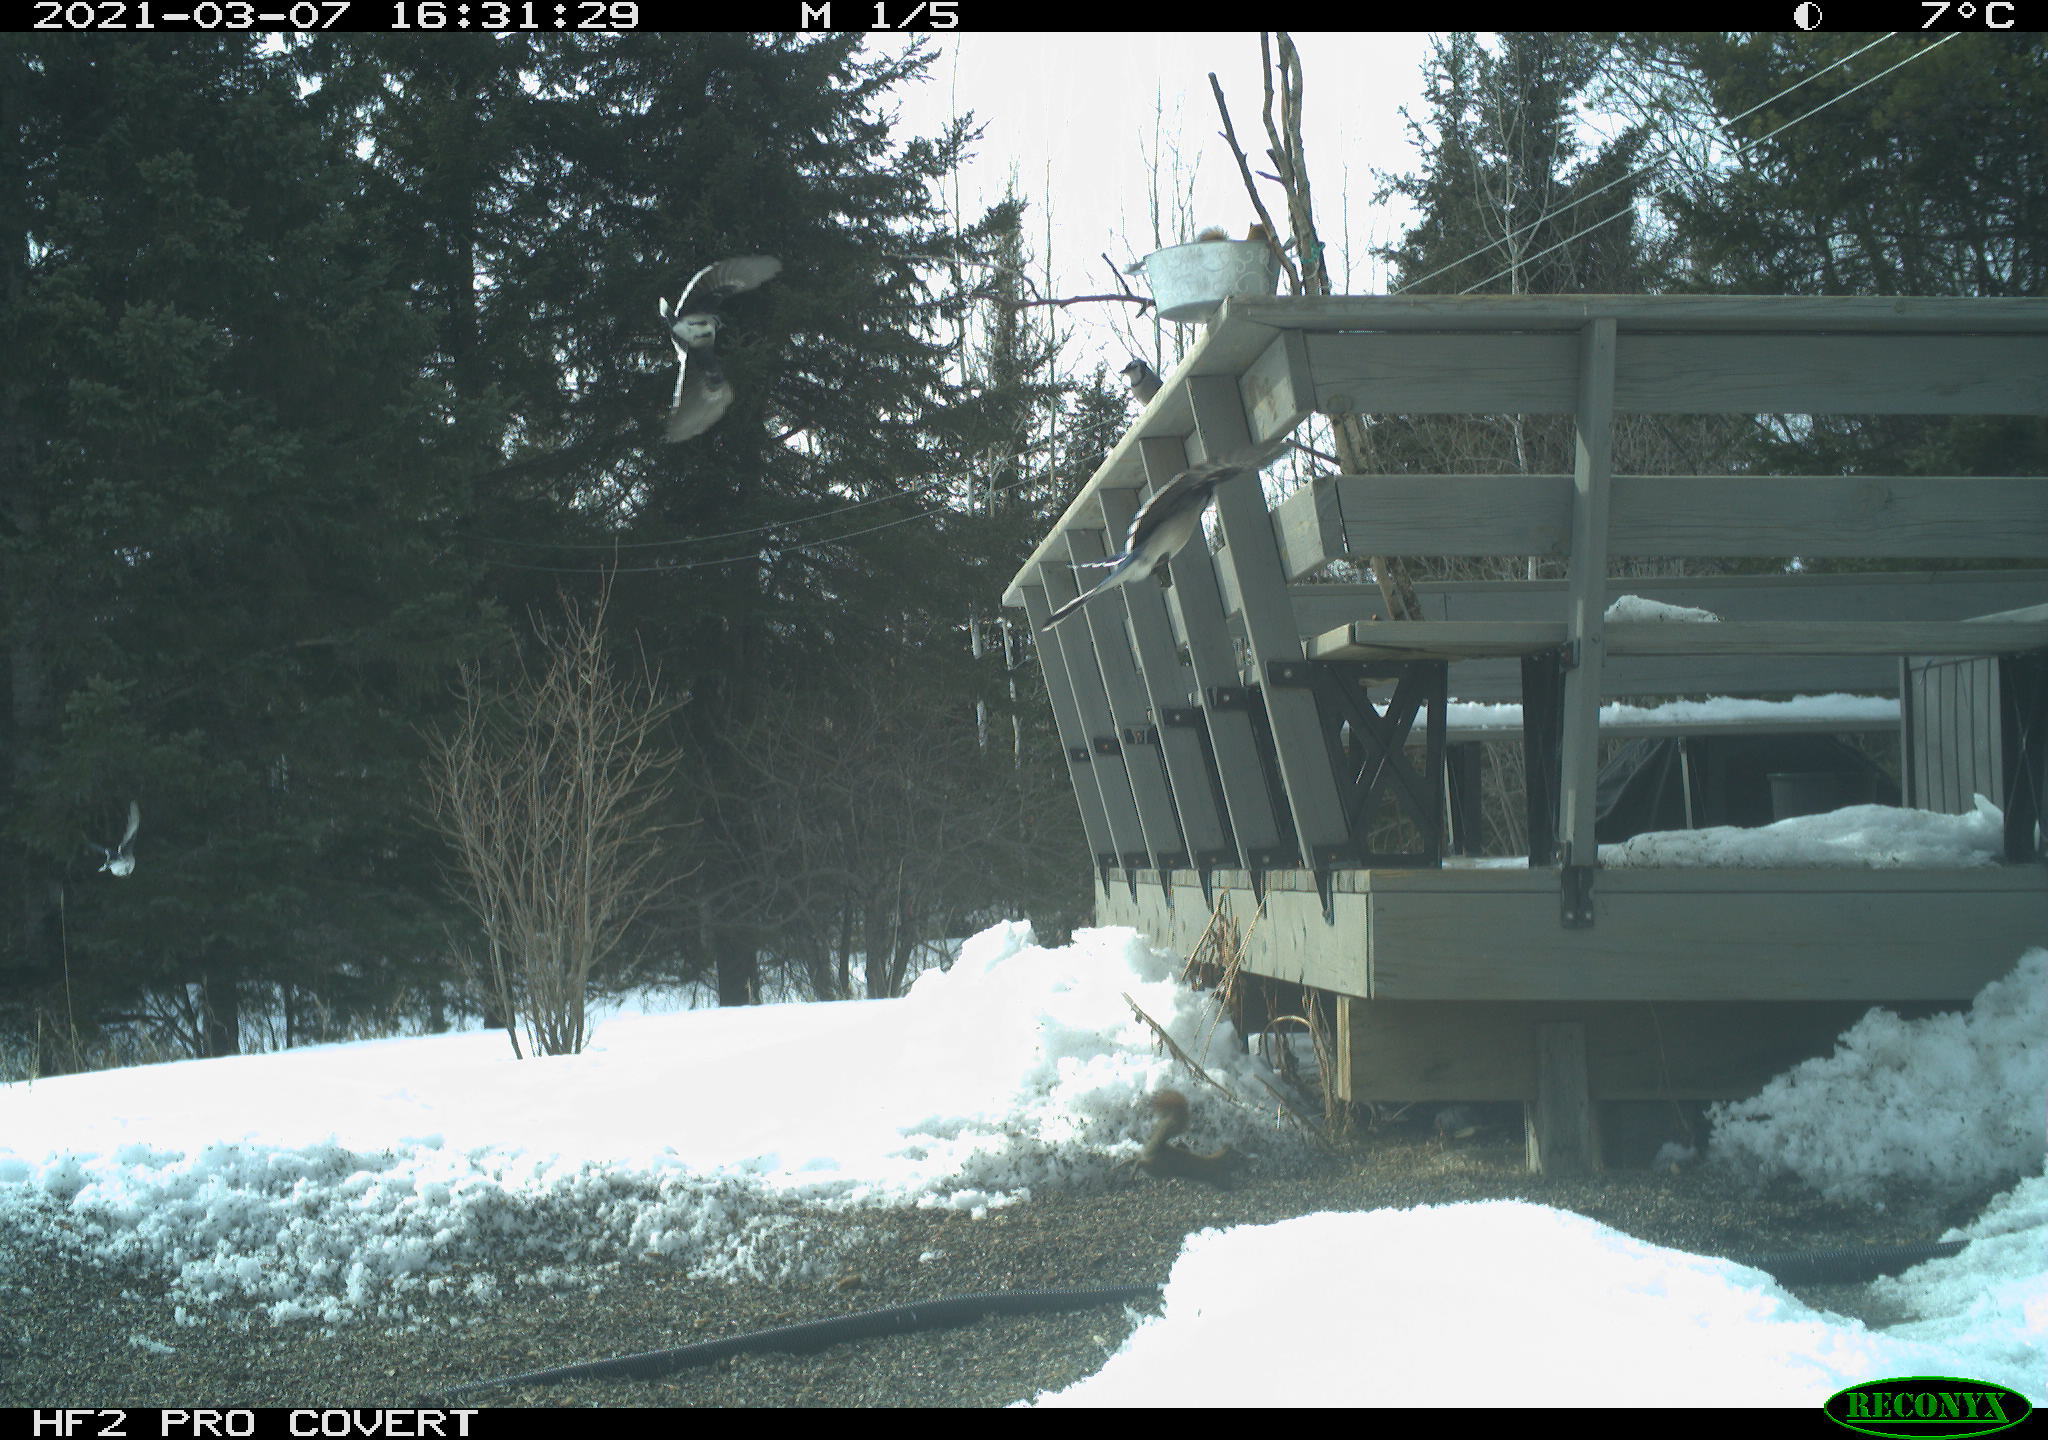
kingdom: Animalia
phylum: Chordata
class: Aves
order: Passeriformes
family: Corvidae
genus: Cyanocitta
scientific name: Cyanocitta cristata
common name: Blue jay
